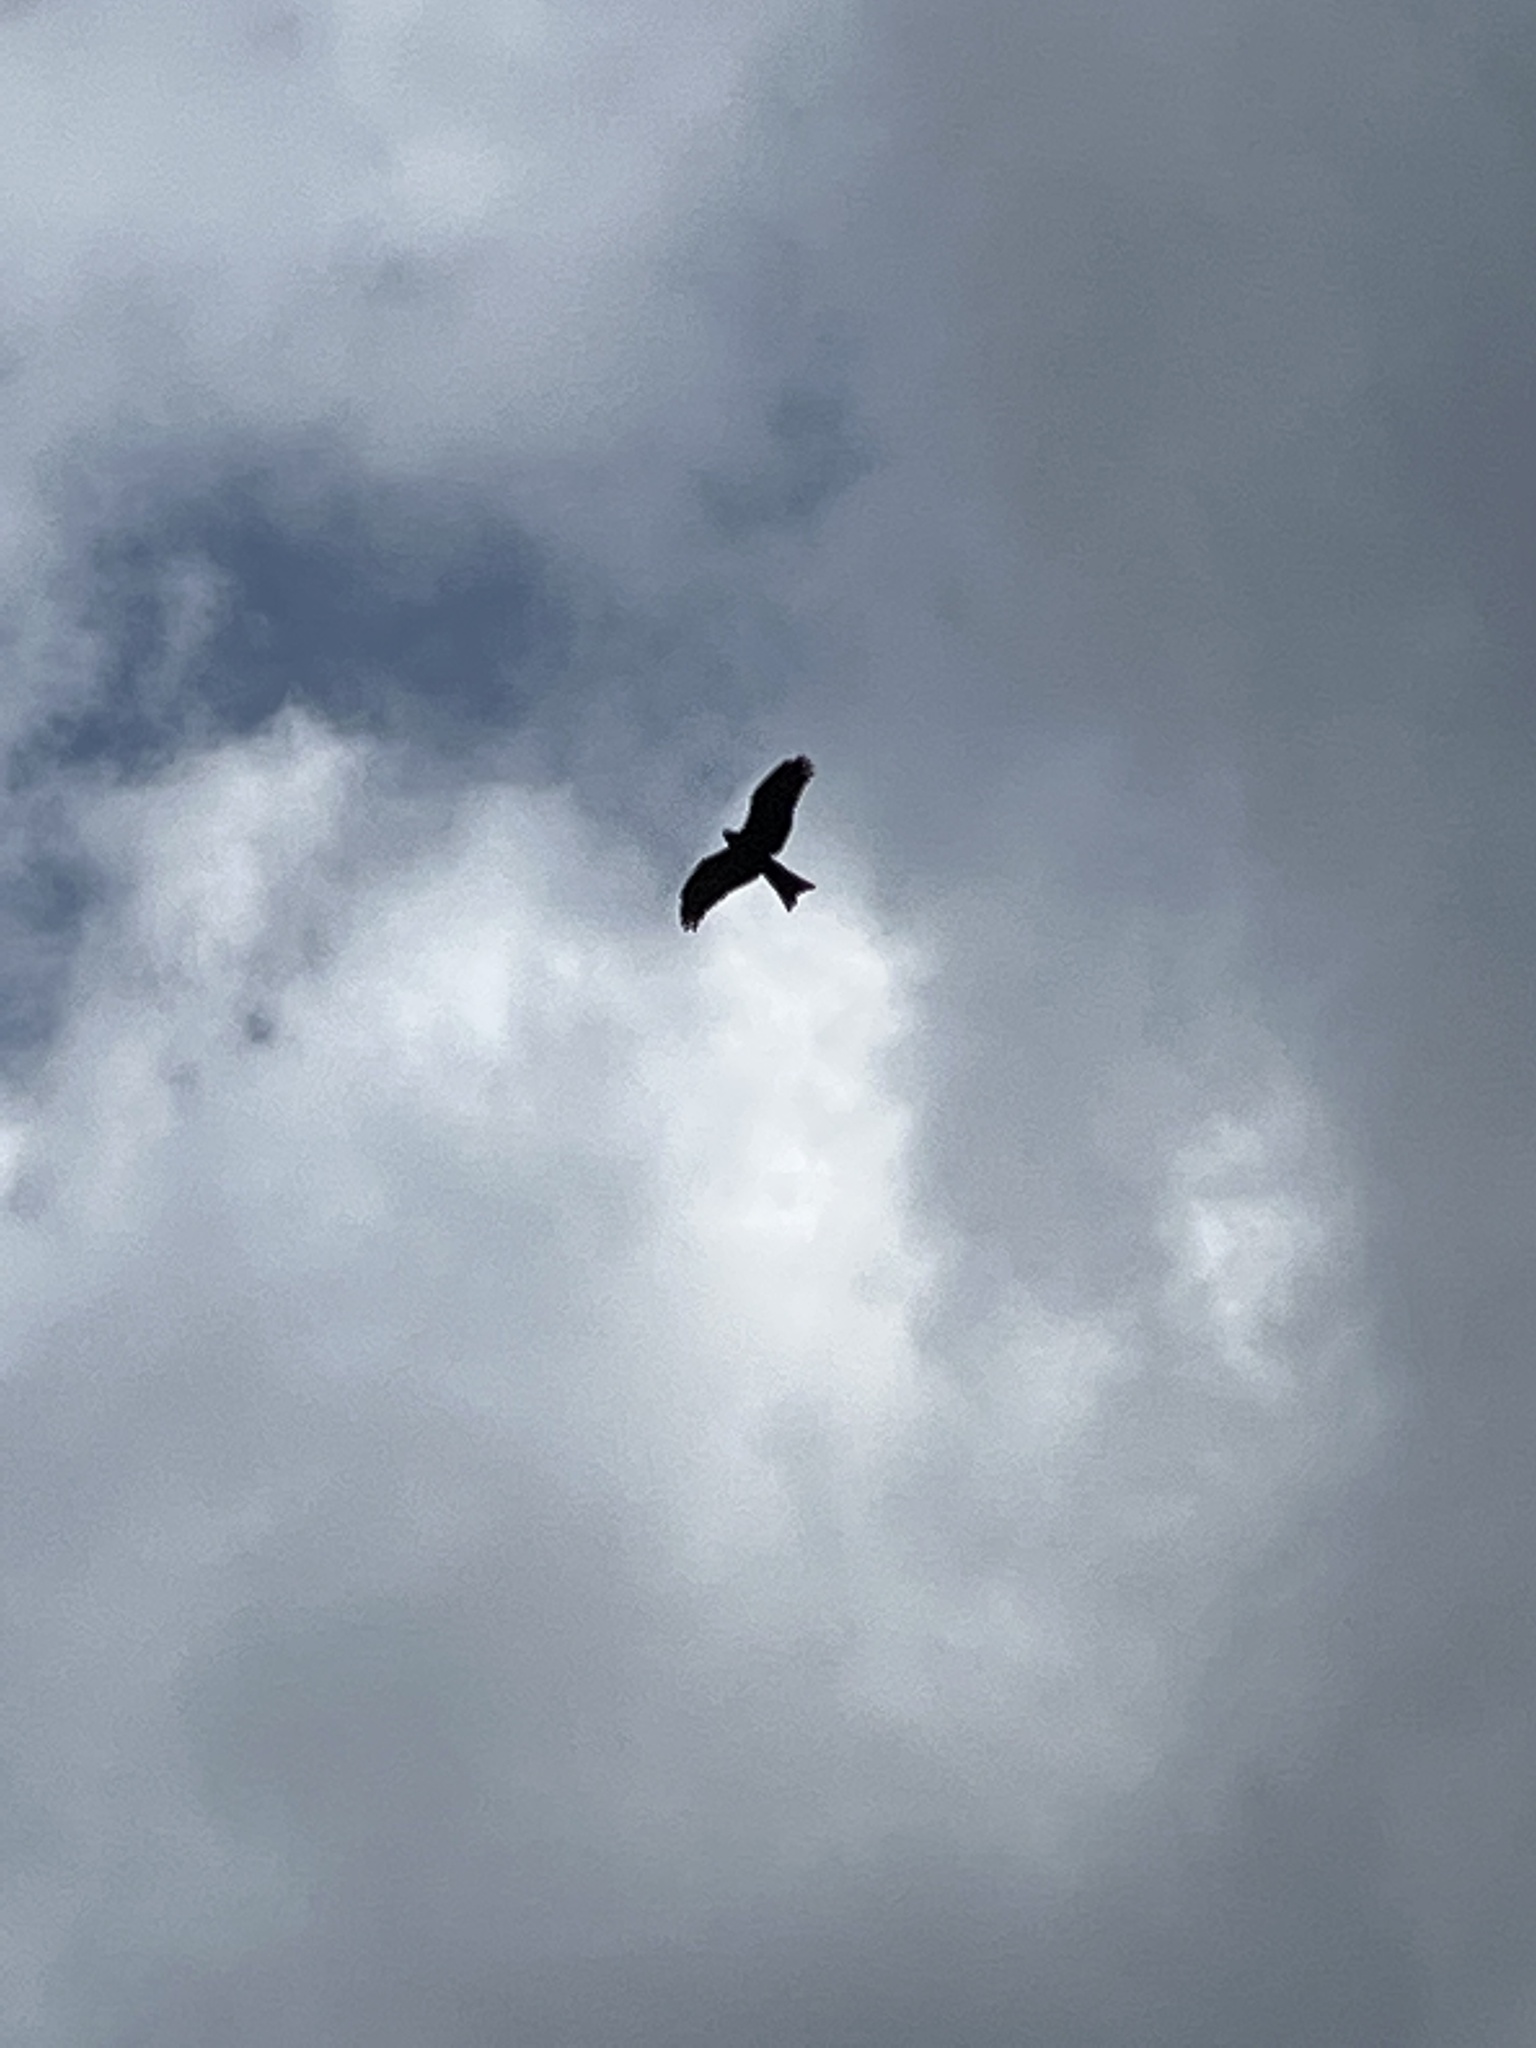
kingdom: Animalia
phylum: Chordata
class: Aves
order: Accipitriformes
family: Accipitridae
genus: Milvus
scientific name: Milvus migrans
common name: Black kite
